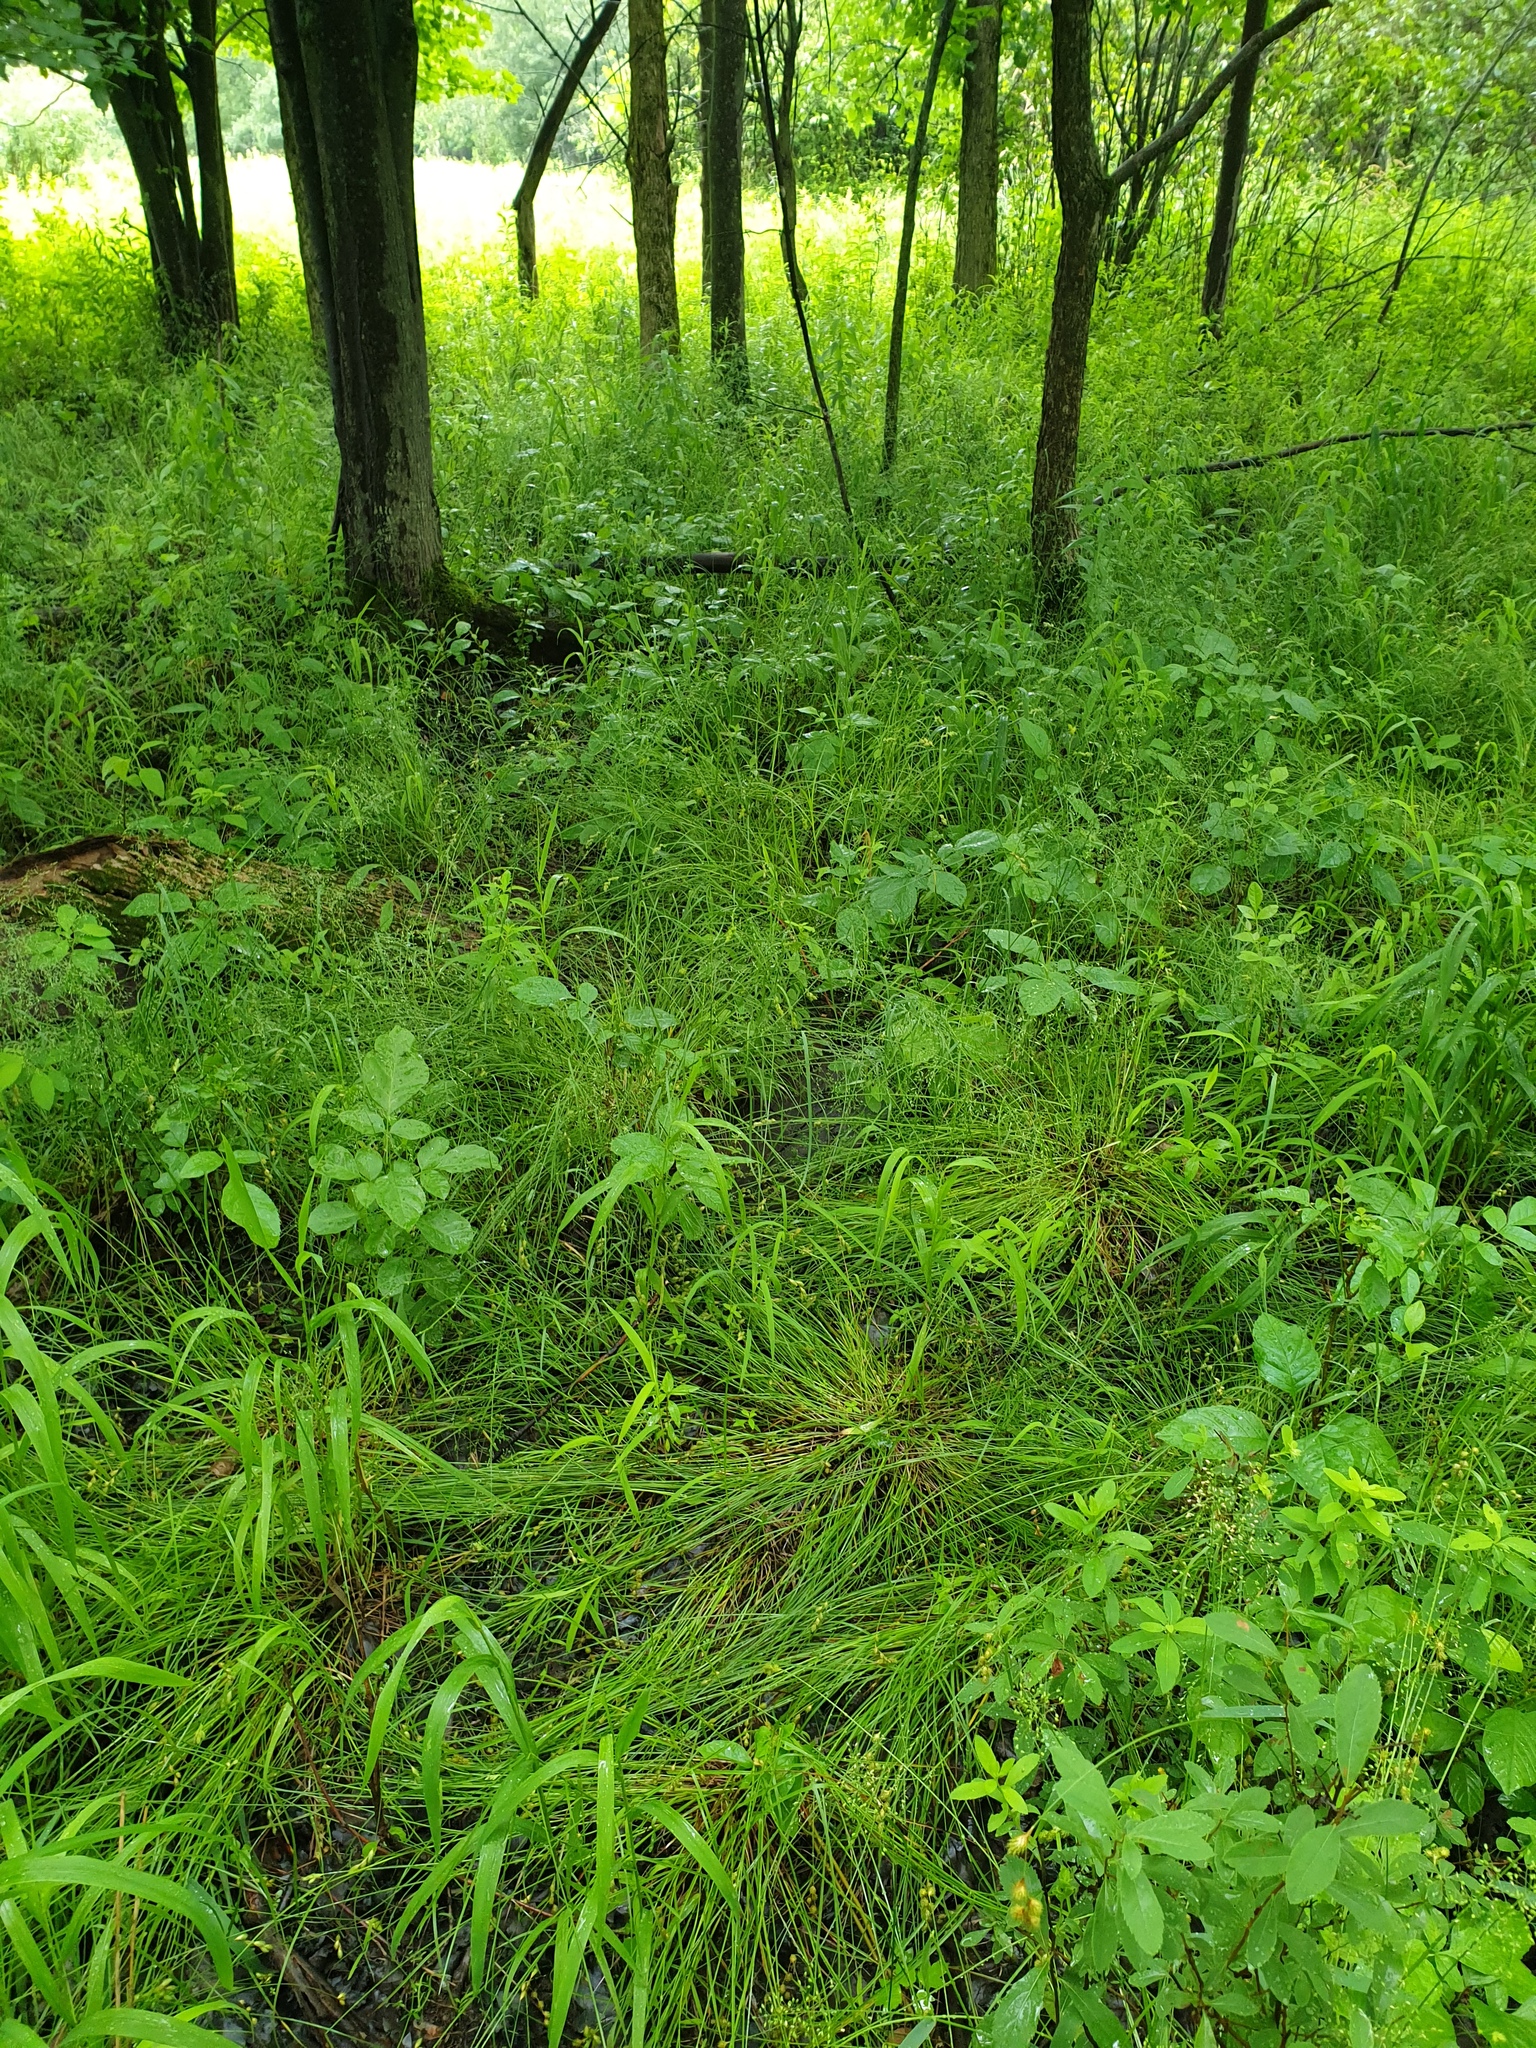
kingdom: Plantae
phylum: Tracheophyta
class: Magnoliopsida
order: Rosales
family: Rosaceae
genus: Spiraea
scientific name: Spiraea alba
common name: Pale bridewort
